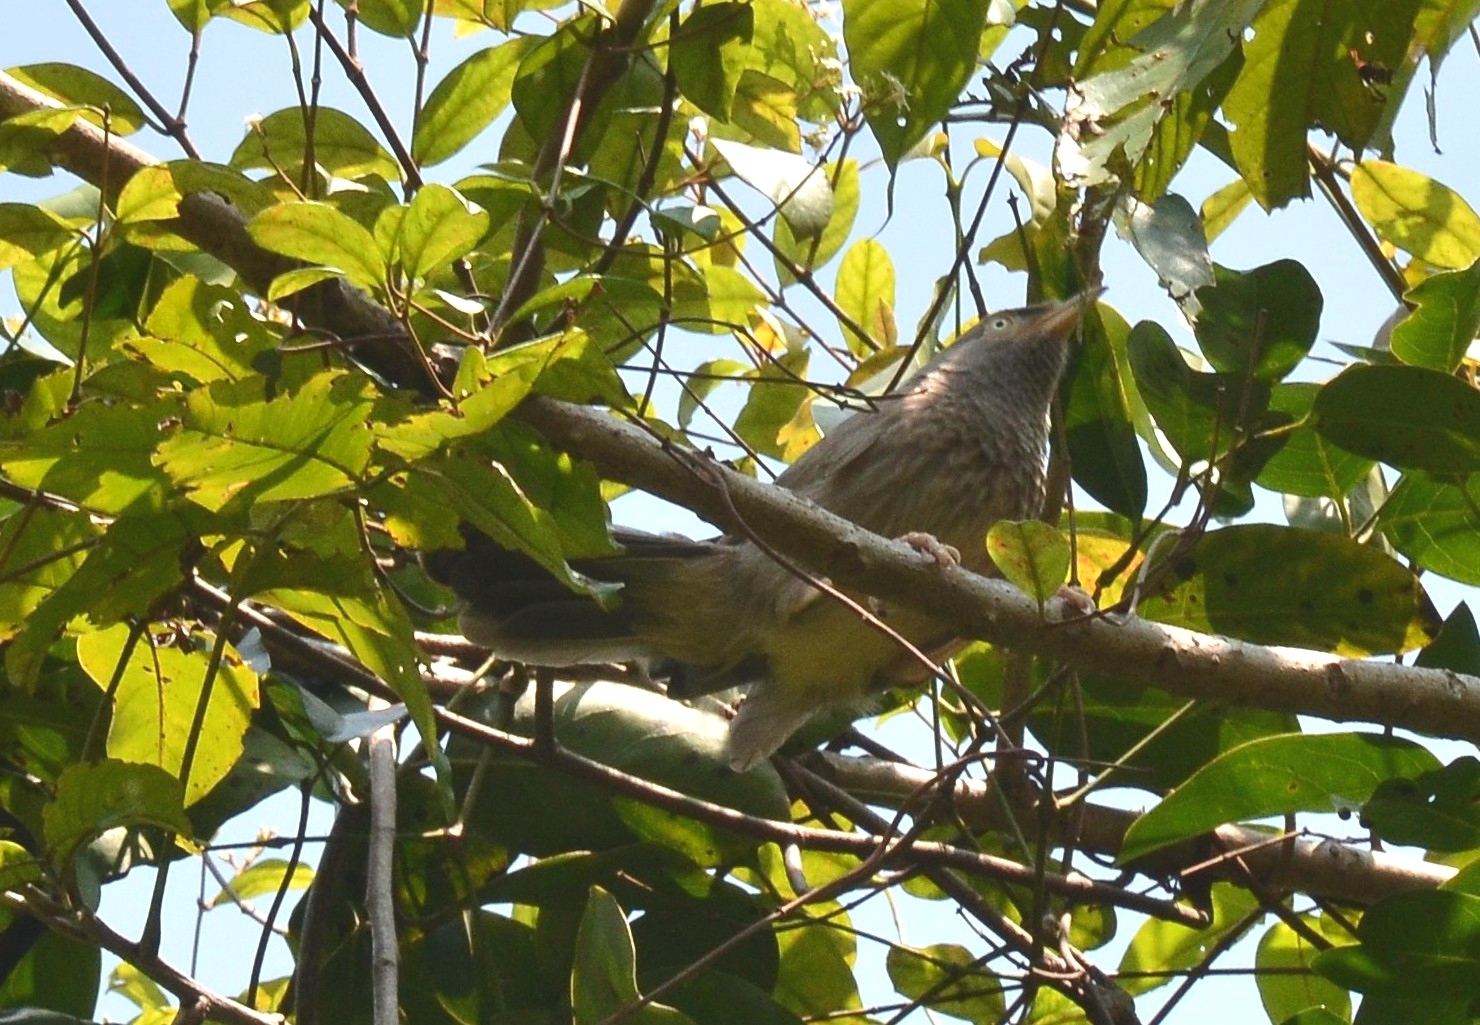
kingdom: Animalia
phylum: Chordata
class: Aves
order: Passeriformes
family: Leiothrichidae
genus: Turdoides
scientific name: Turdoides striata
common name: Jungle babbler
